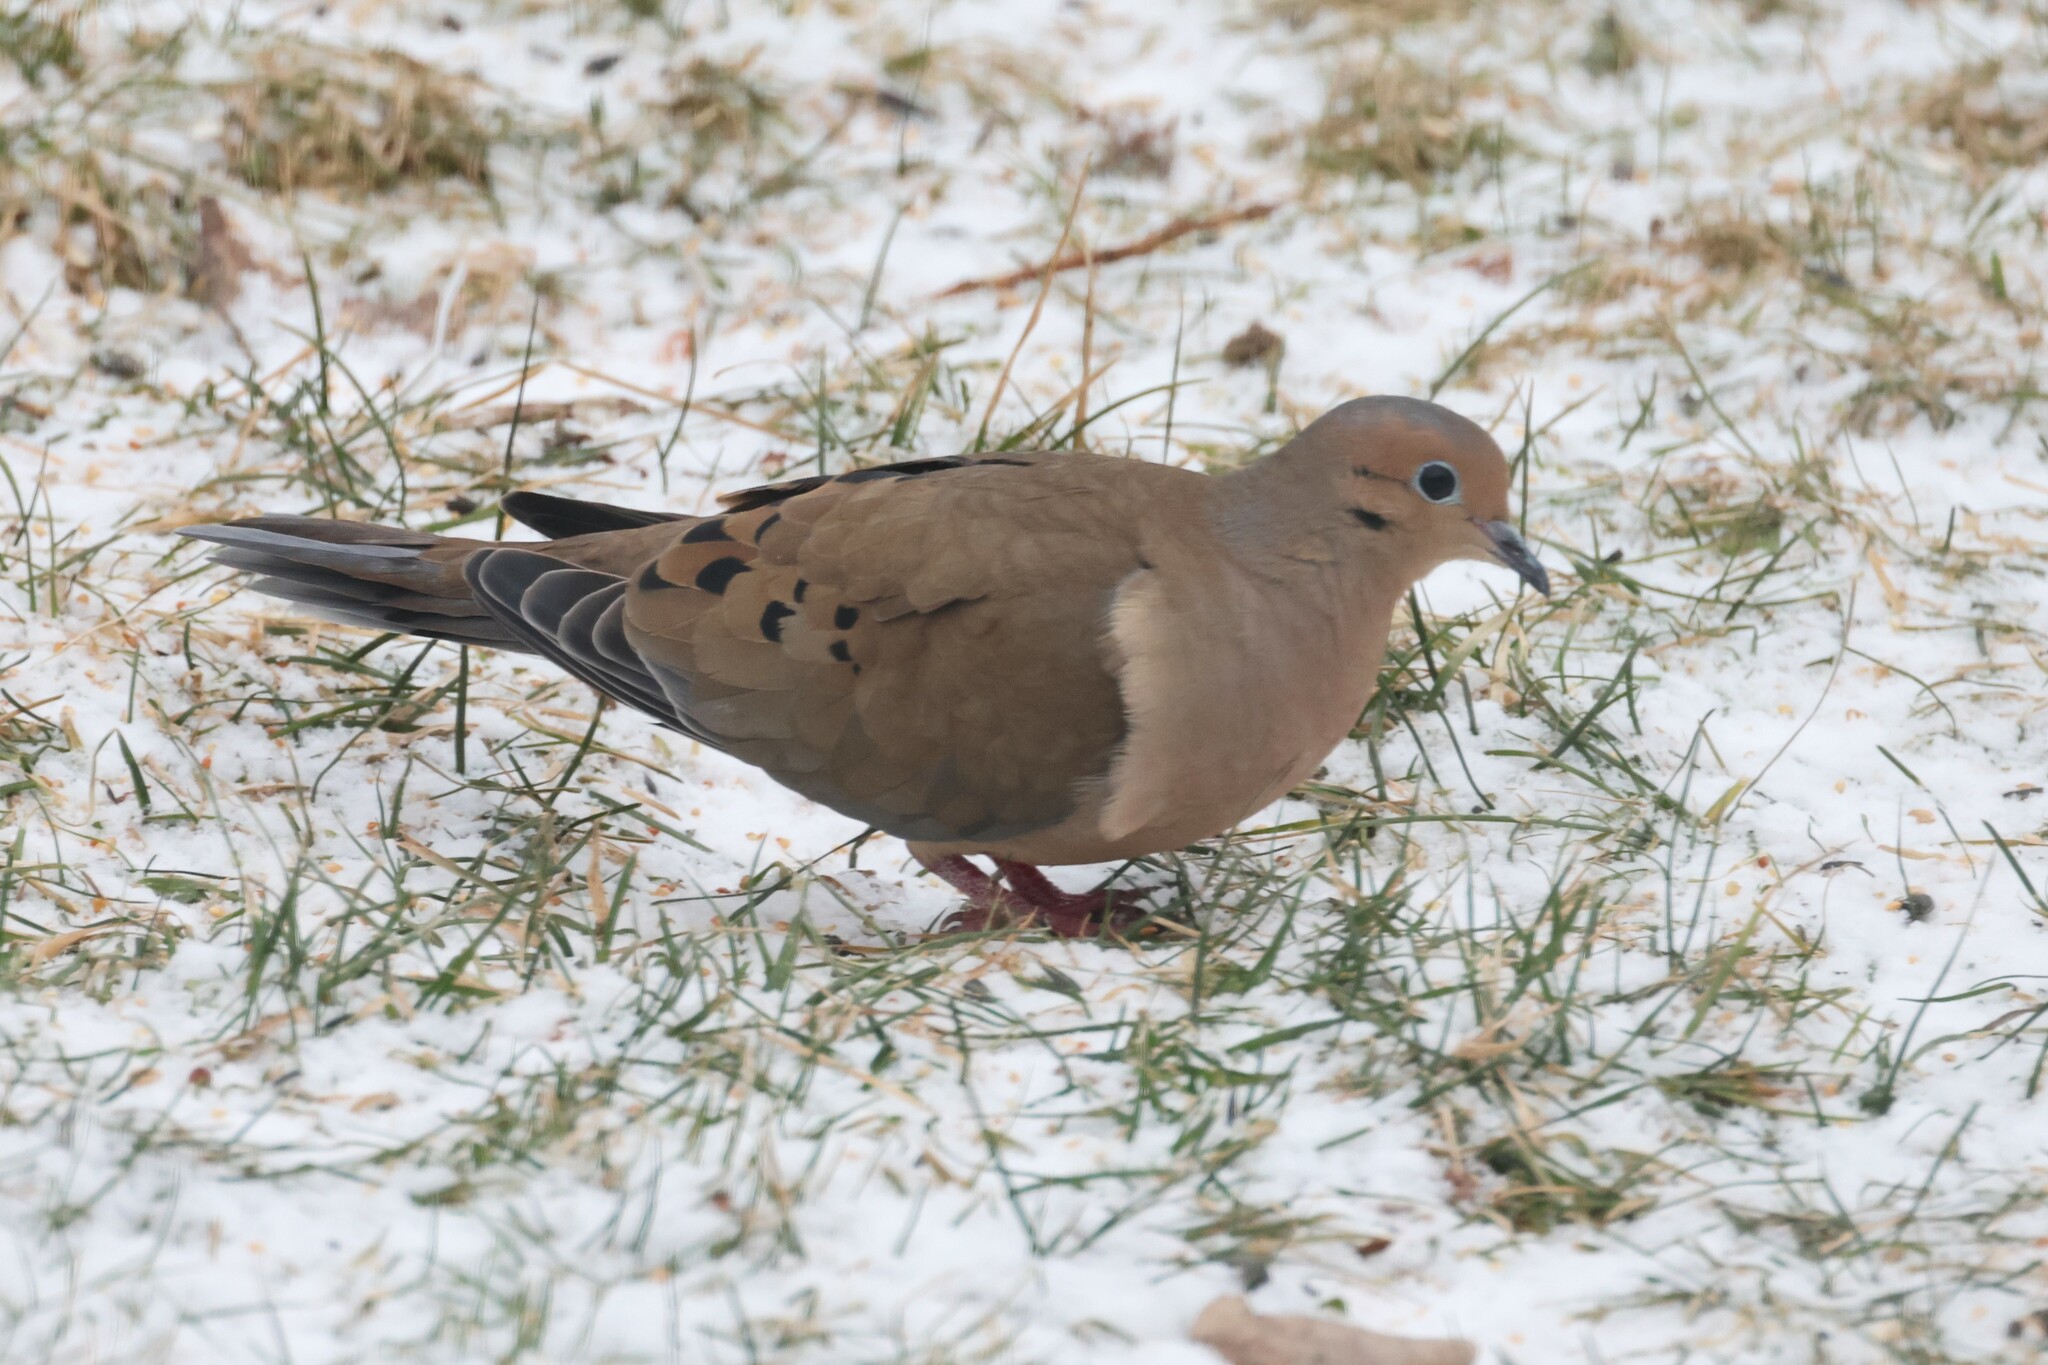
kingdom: Animalia
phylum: Chordata
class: Aves
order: Columbiformes
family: Columbidae
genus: Zenaida
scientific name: Zenaida macroura
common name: Mourning dove
